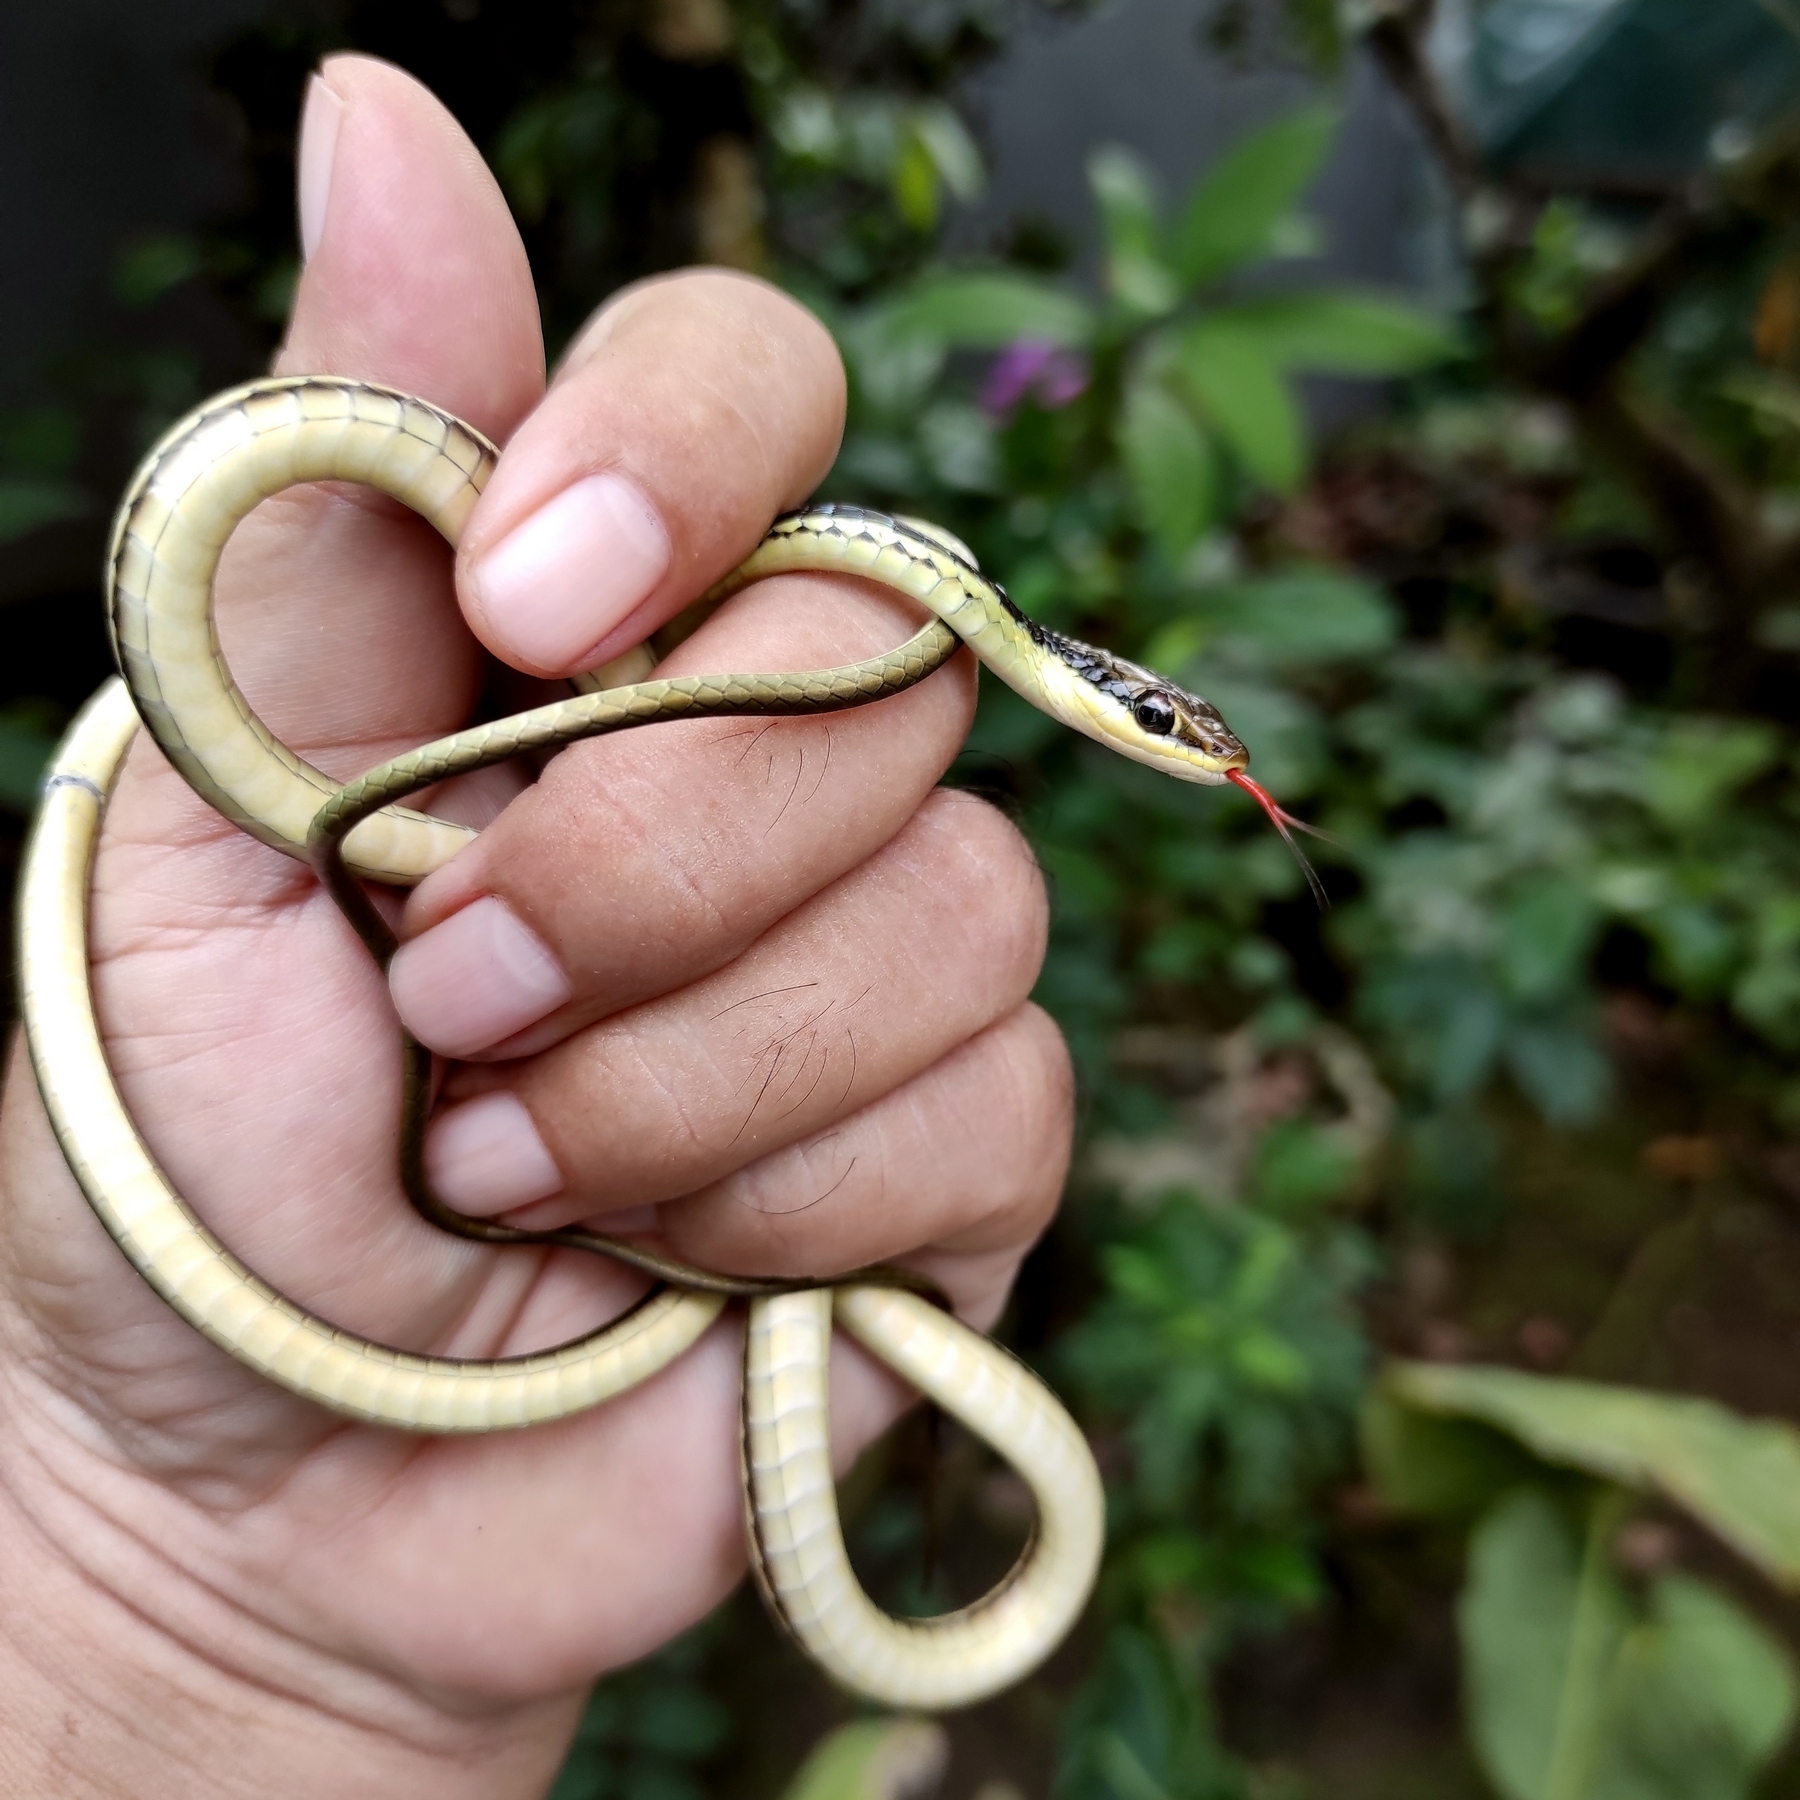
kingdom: Animalia
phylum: Chordata
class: Squamata
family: Colubridae
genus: Dendrelaphis
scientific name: Dendrelaphis pictus
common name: Indonesian bronze-back
